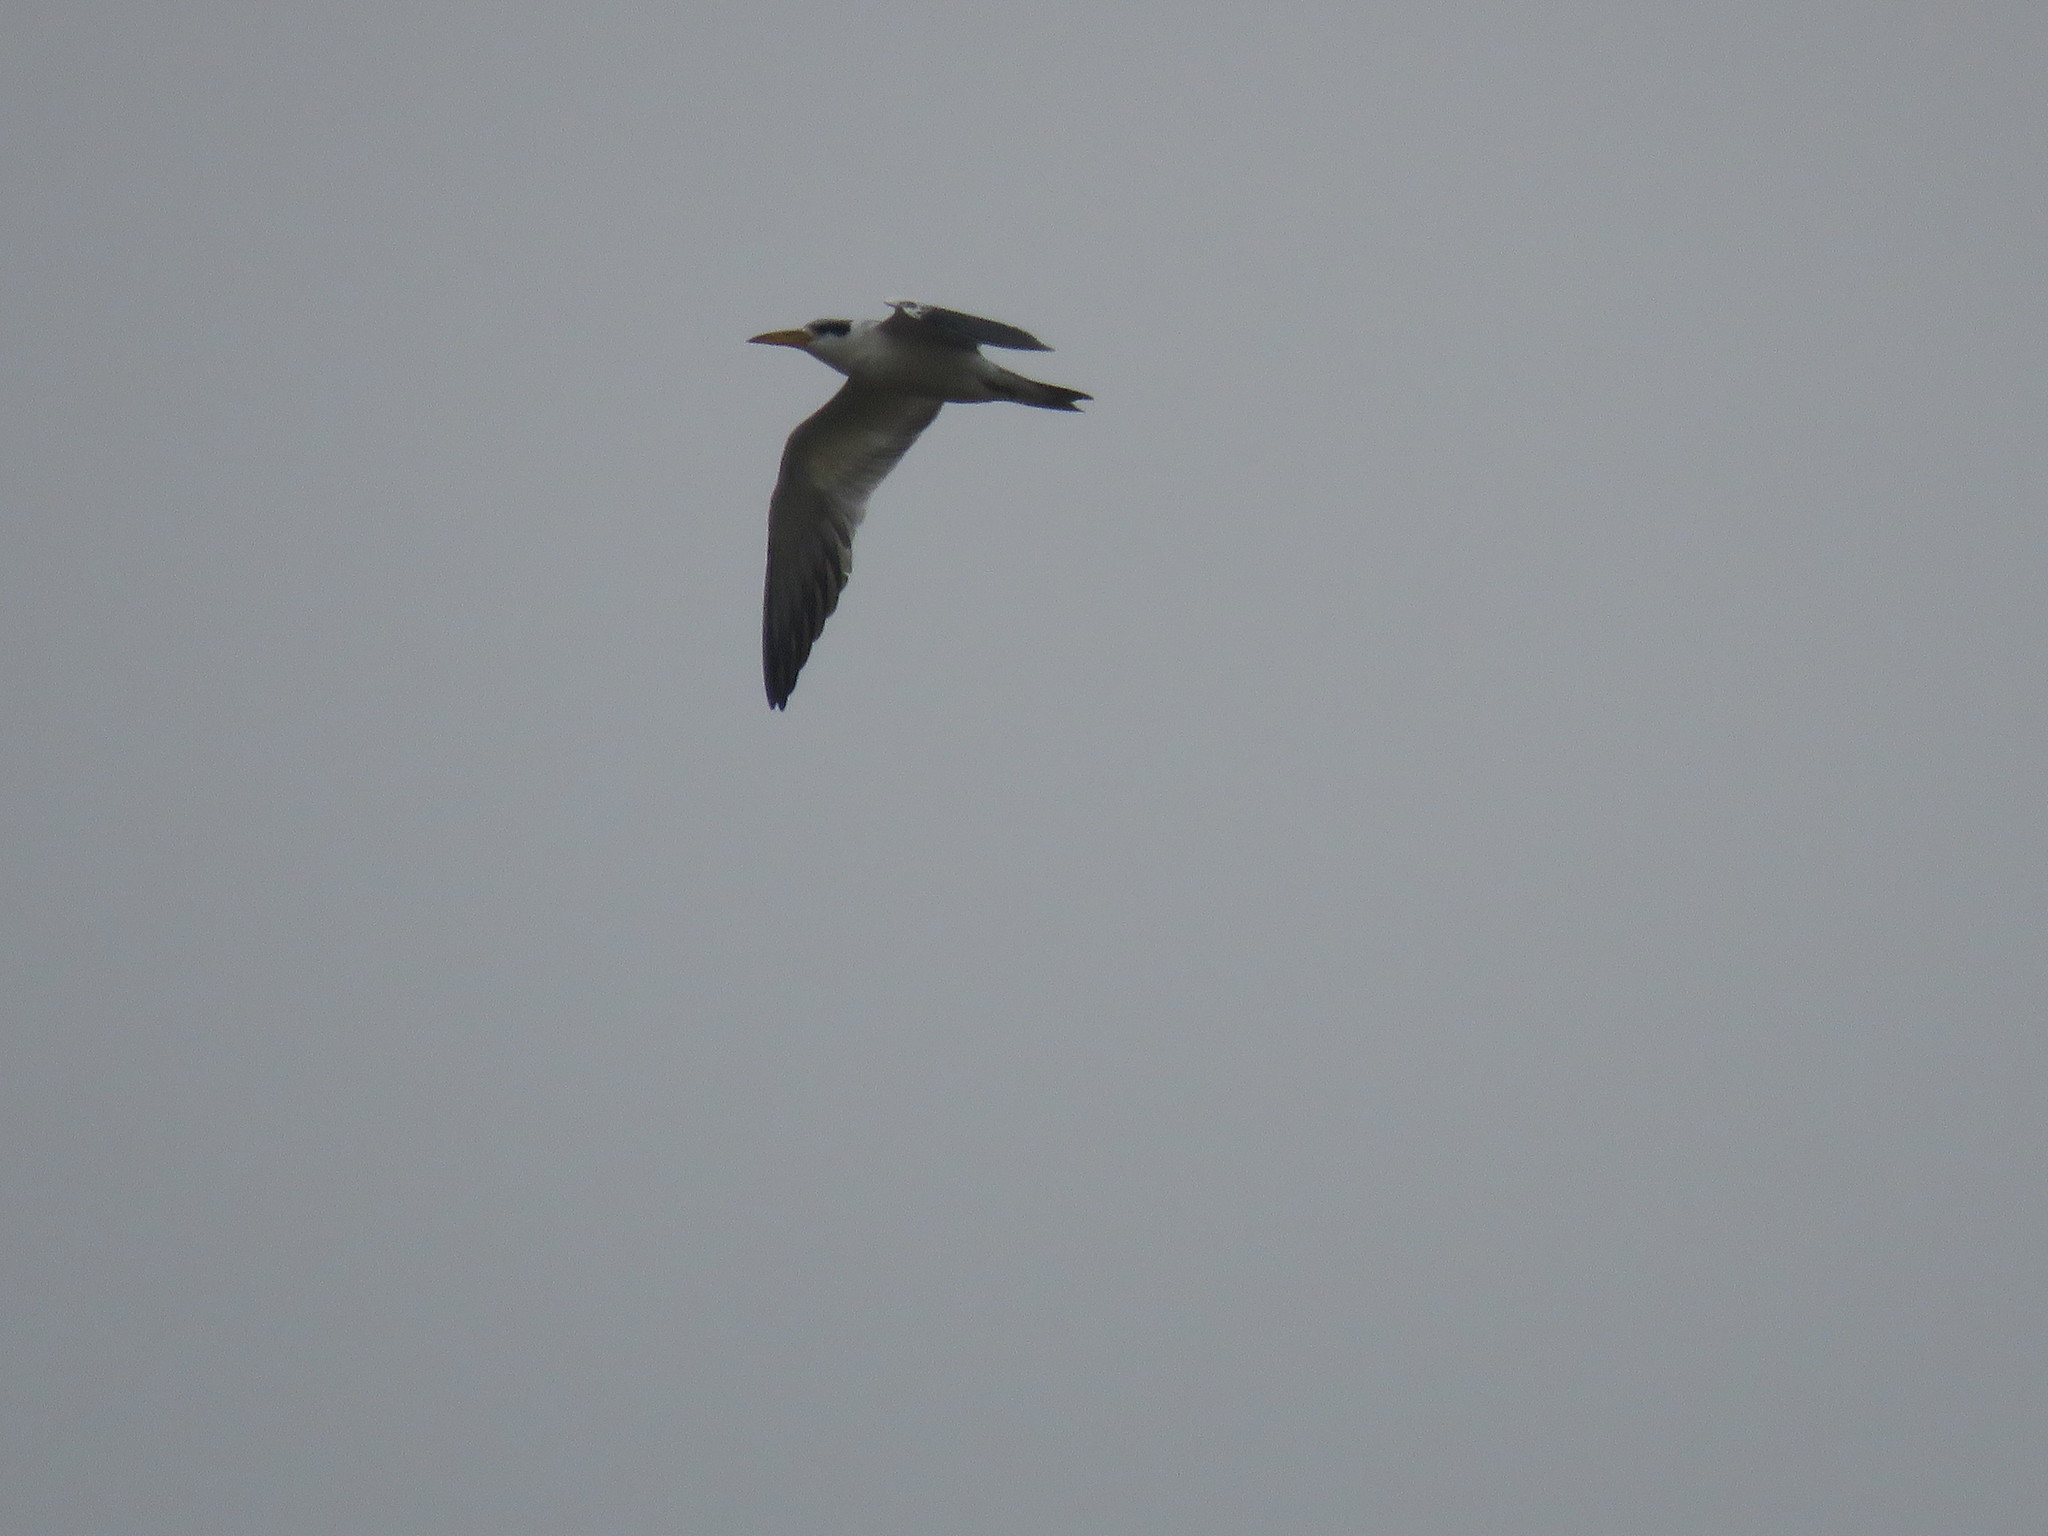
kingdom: Animalia
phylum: Chordata
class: Aves
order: Charadriiformes
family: Laridae
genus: Phaetusa
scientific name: Phaetusa simplex
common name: Large-billed tern
